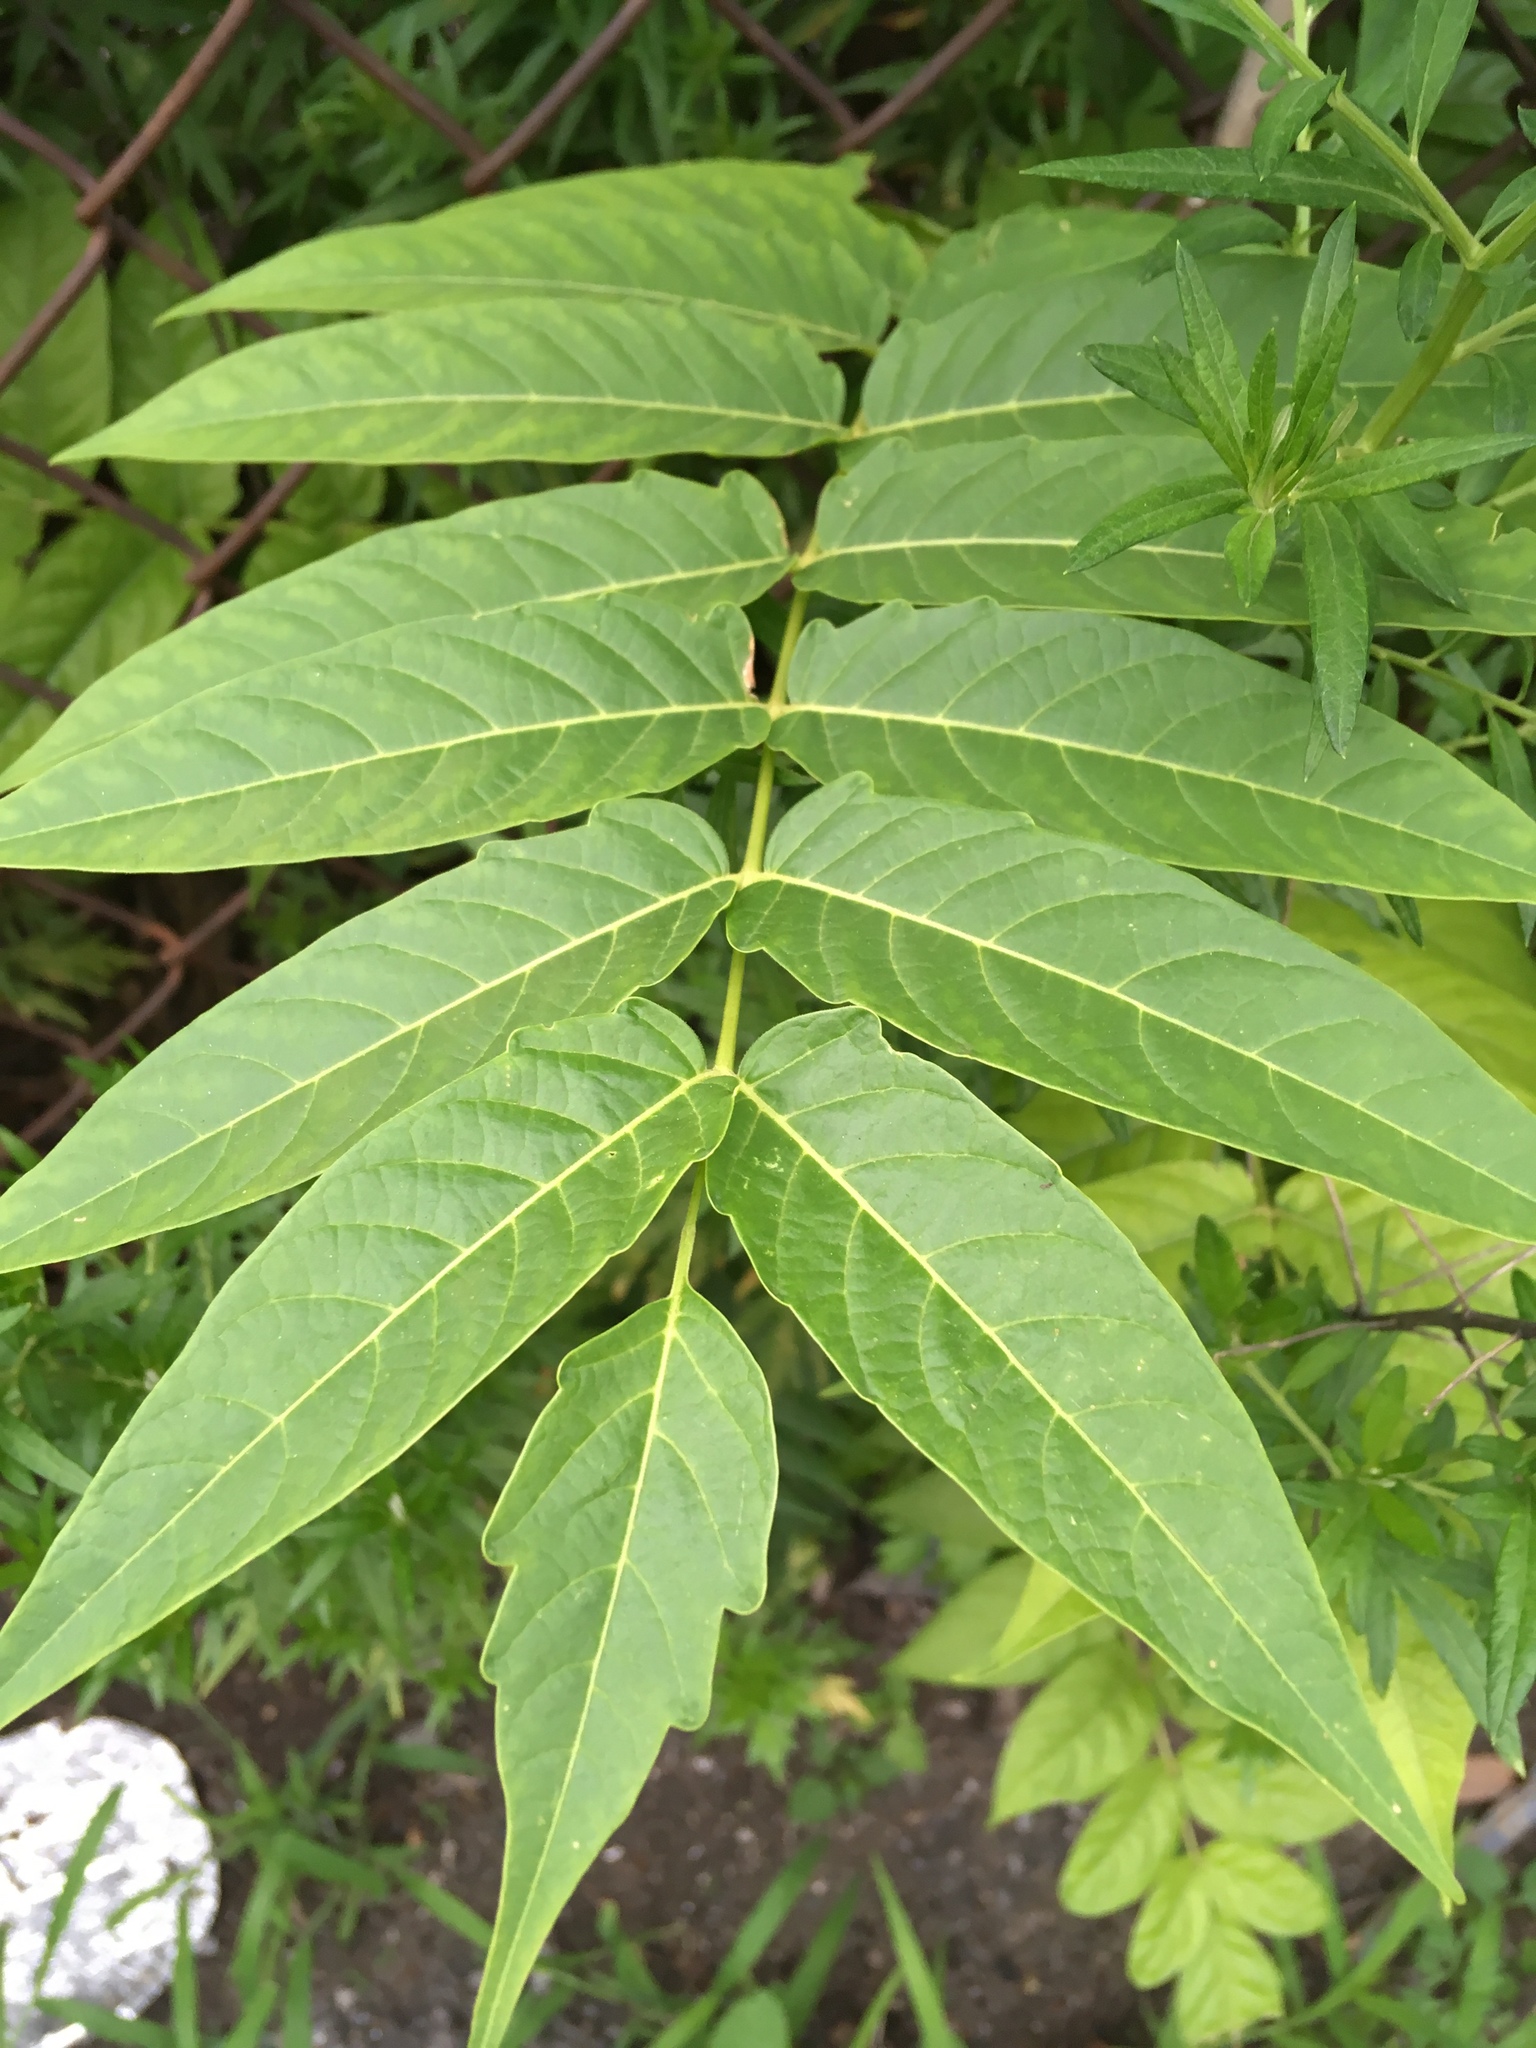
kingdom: Plantae
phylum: Tracheophyta
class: Magnoliopsida
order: Sapindales
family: Simaroubaceae
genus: Ailanthus
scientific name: Ailanthus altissima
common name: Tree-of-heaven
